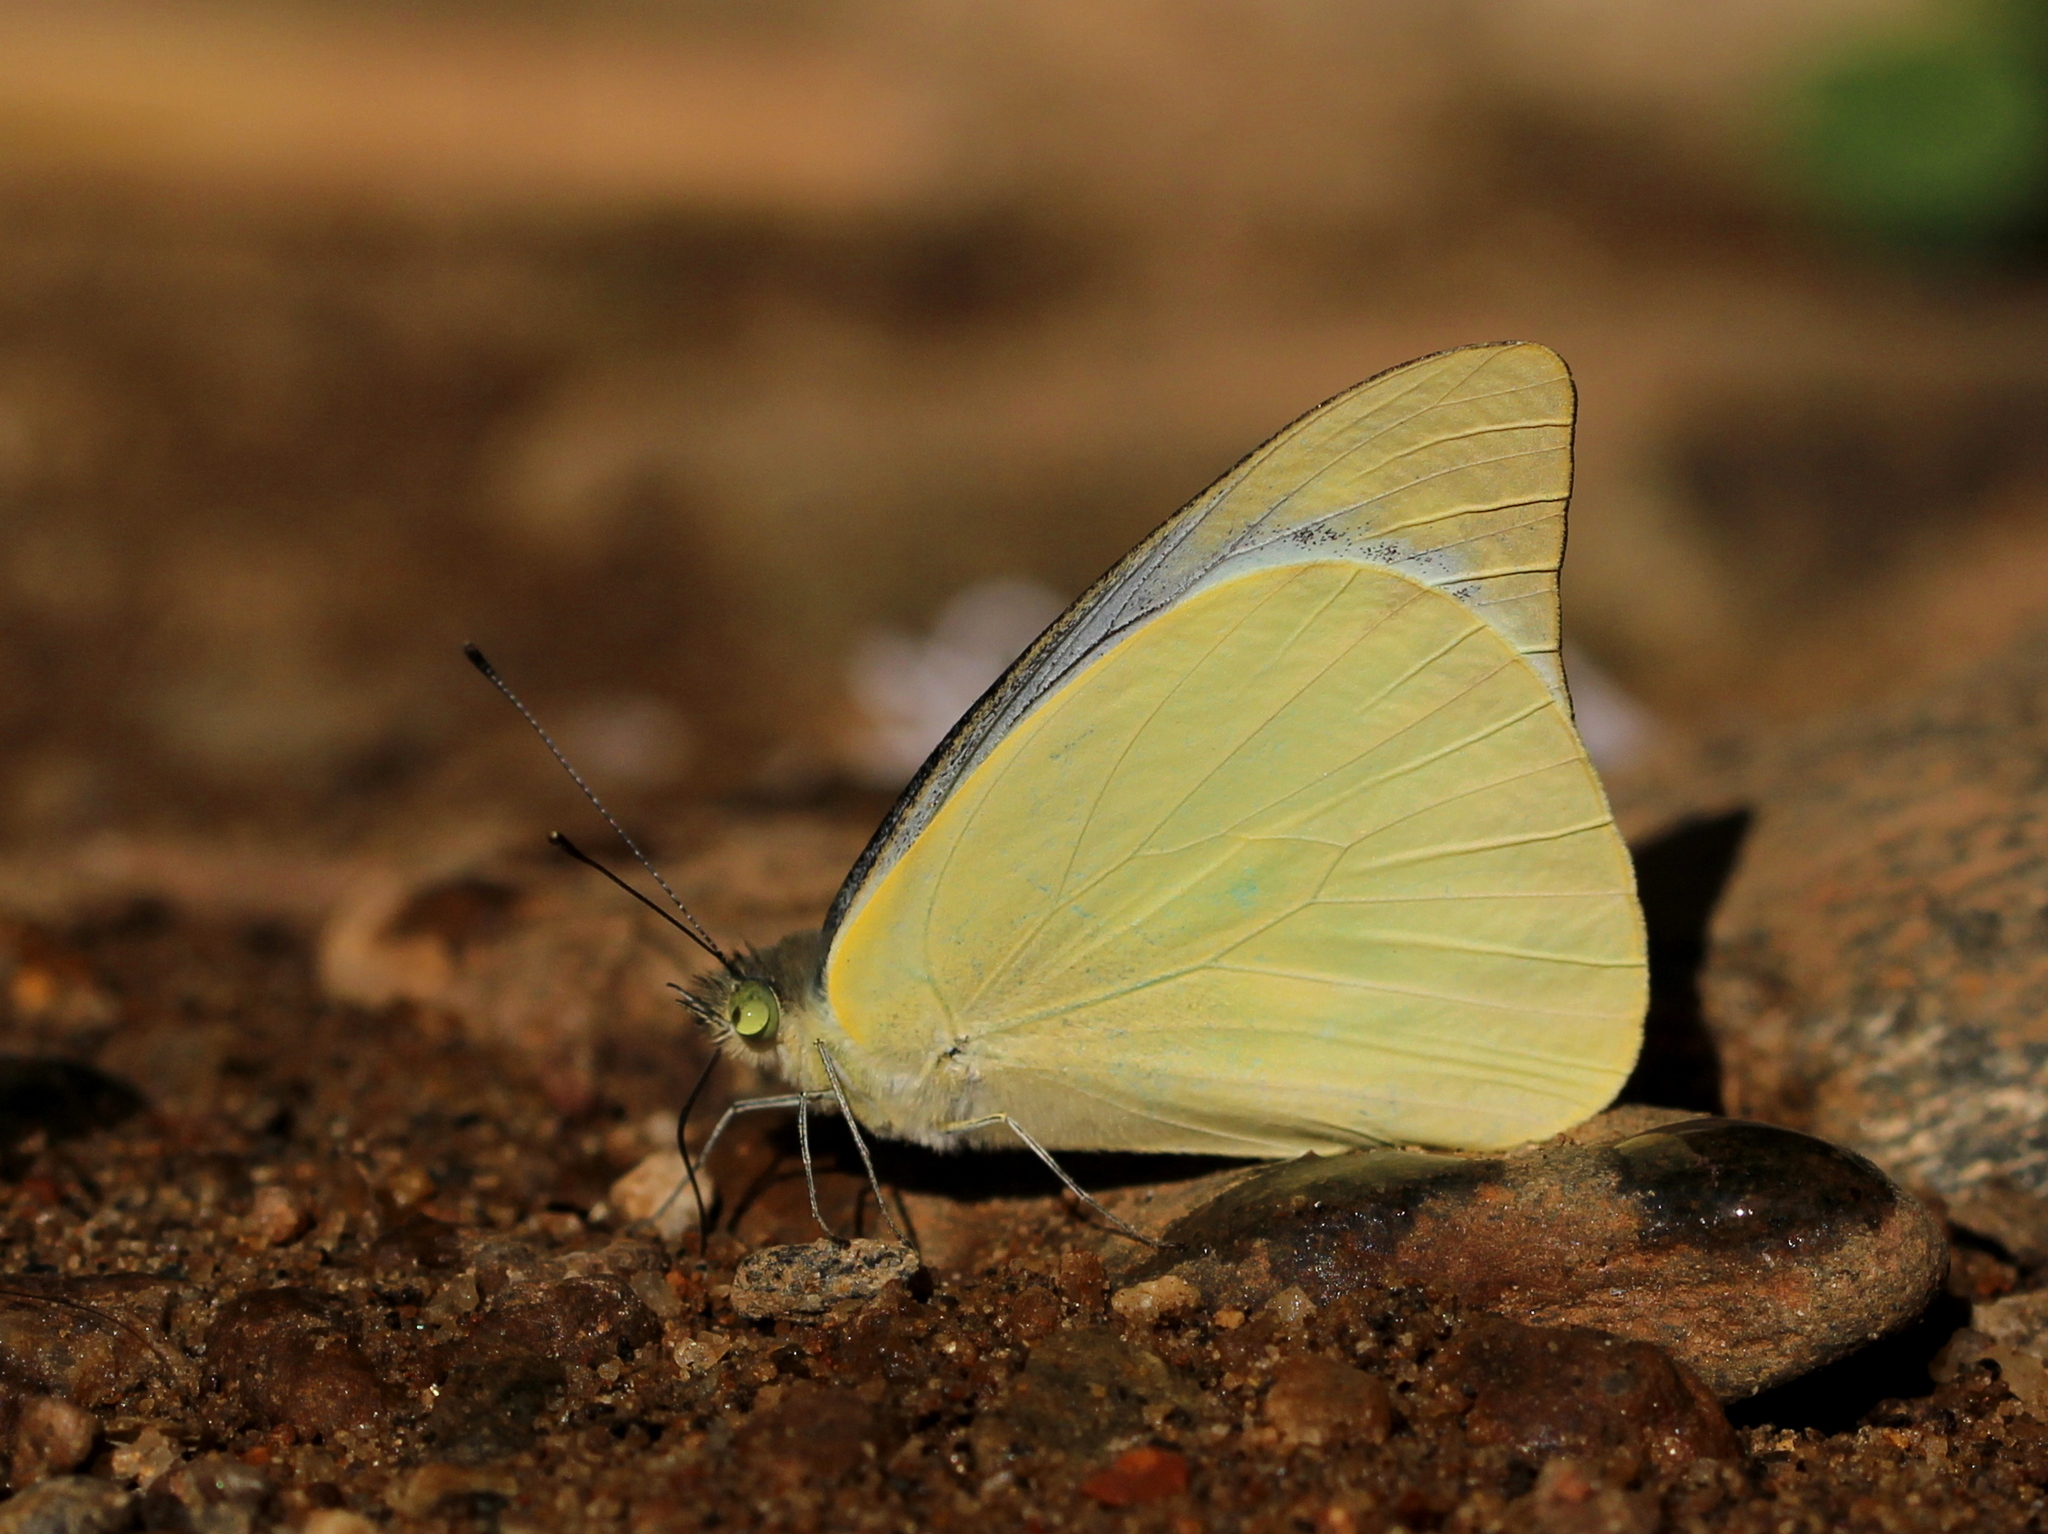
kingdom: Animalia
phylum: Arthropoda
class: Insecta
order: Lepidoptera
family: Pieridae
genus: Appias
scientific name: Appias albina
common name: Common albatross
